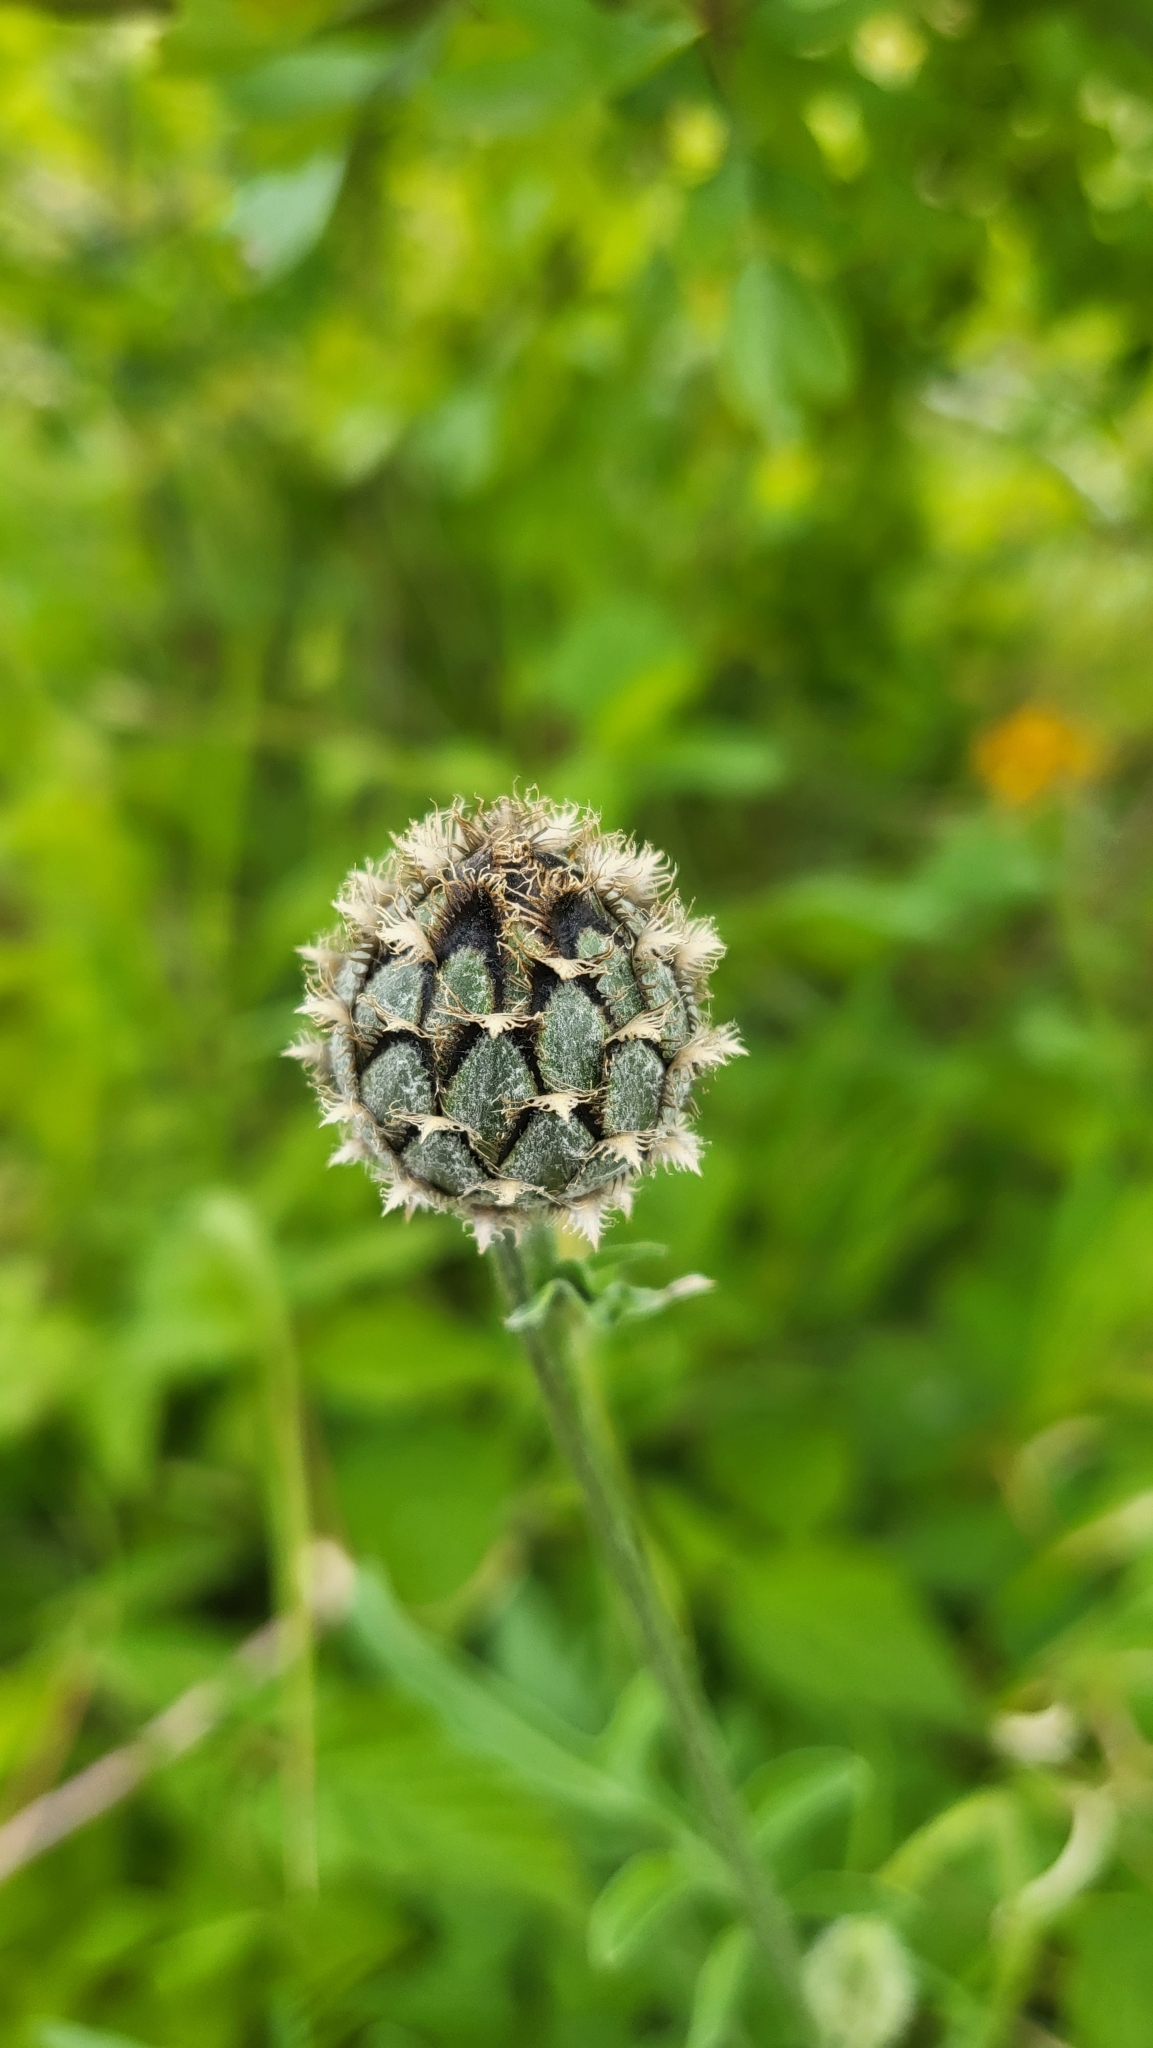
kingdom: Plantae
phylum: Tracheophyta
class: Magnoliopsida
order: Asterales
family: Asteraceae
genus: Centaurea
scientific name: Centaurea scabiosa
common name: Greater knapweed
